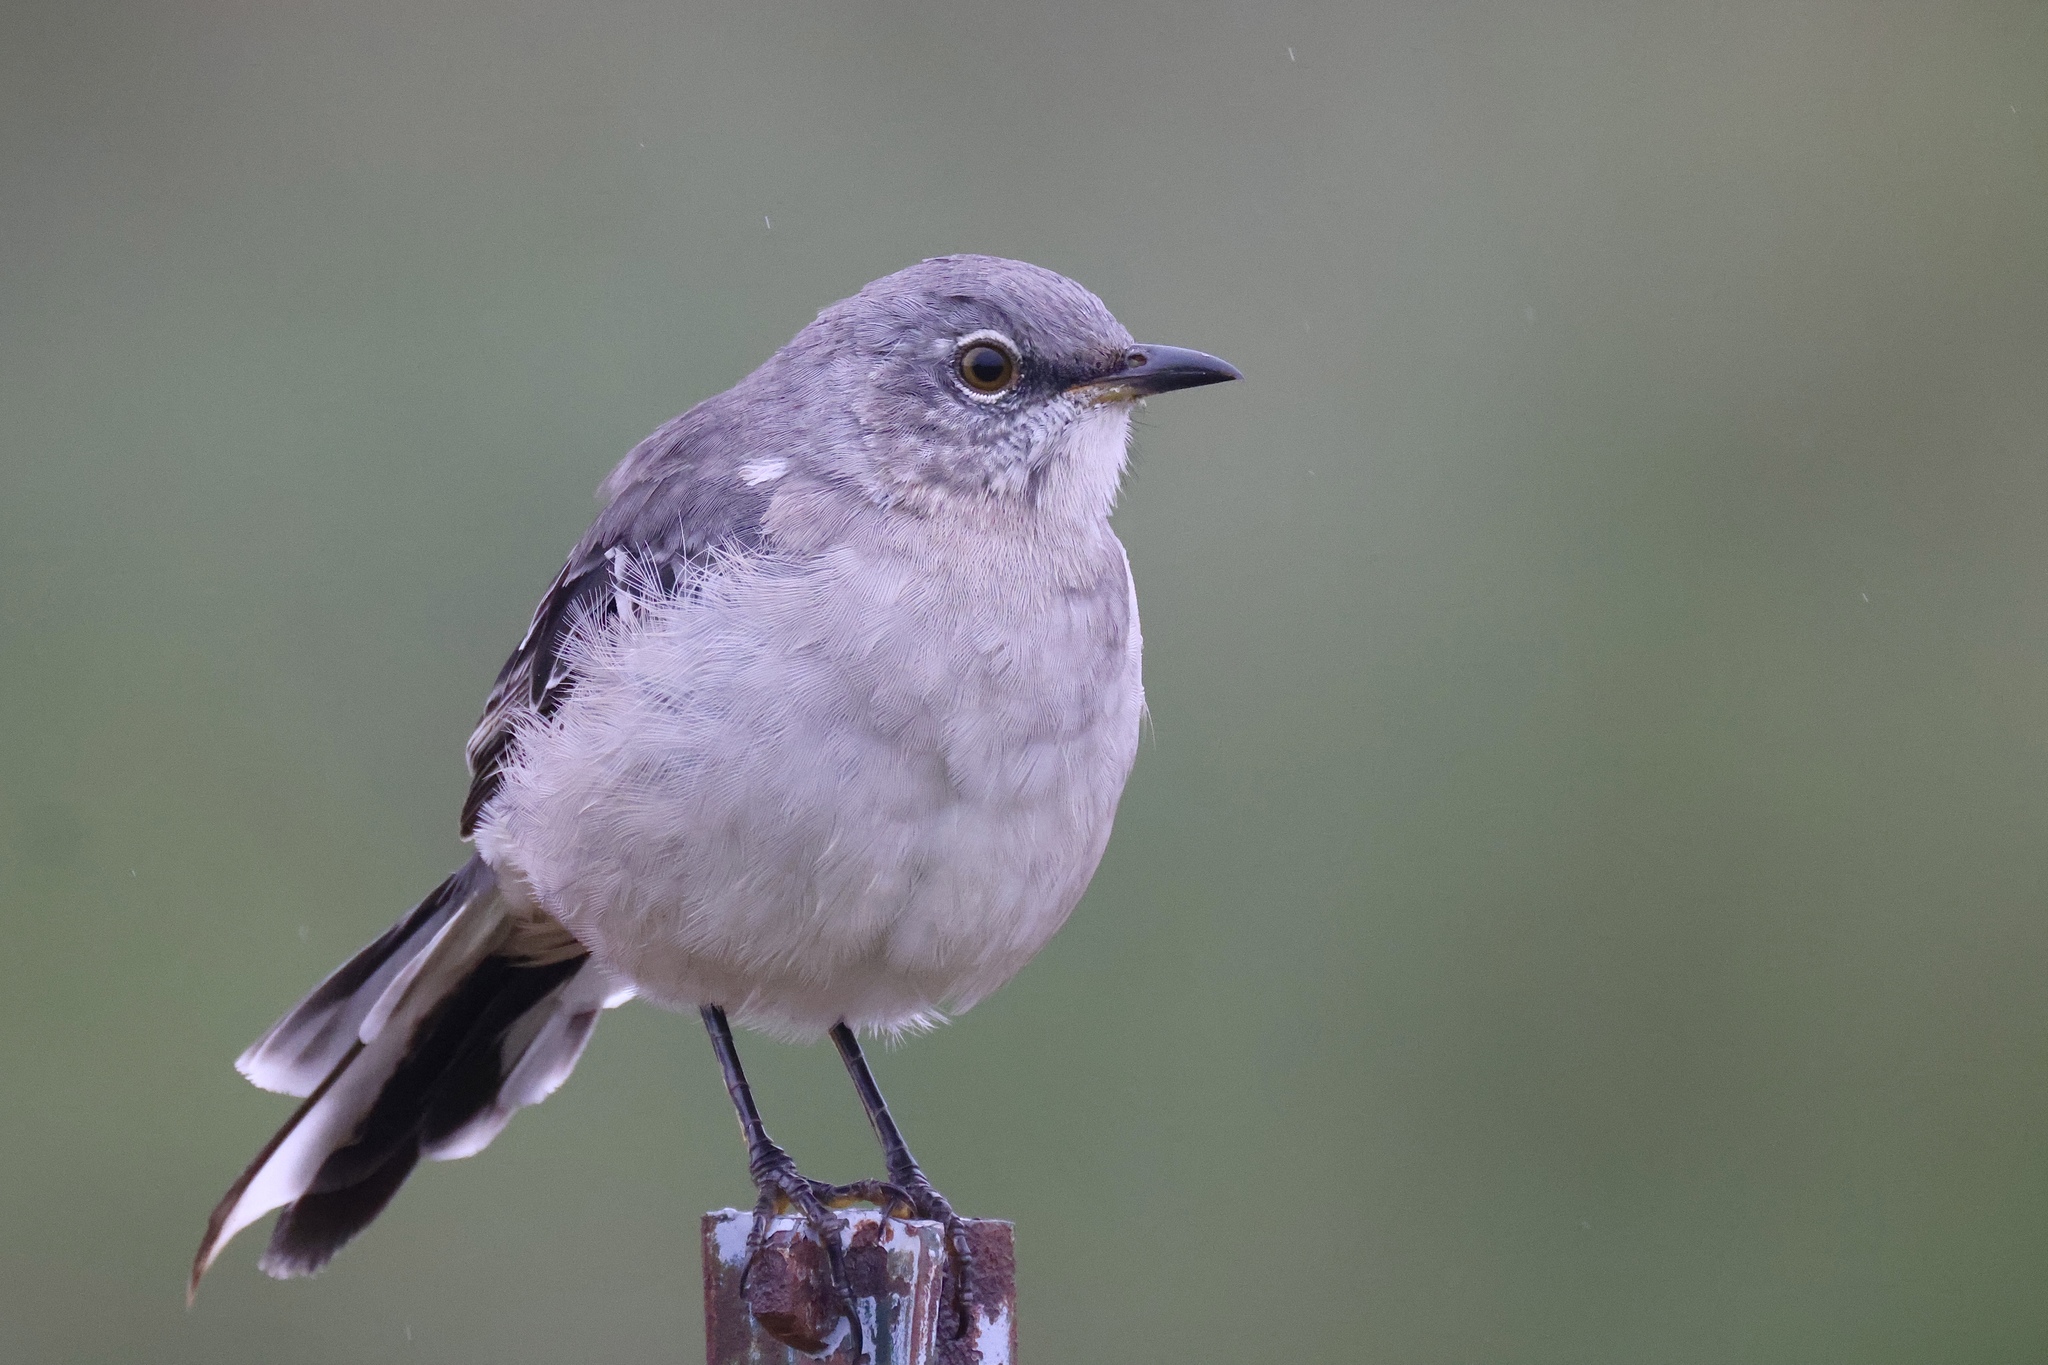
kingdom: Animalia
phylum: Chordata
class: Aves
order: Passeriformes
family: Mimidae
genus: Mimus
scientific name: Mimus polyglottos
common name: Northern mockingbird
